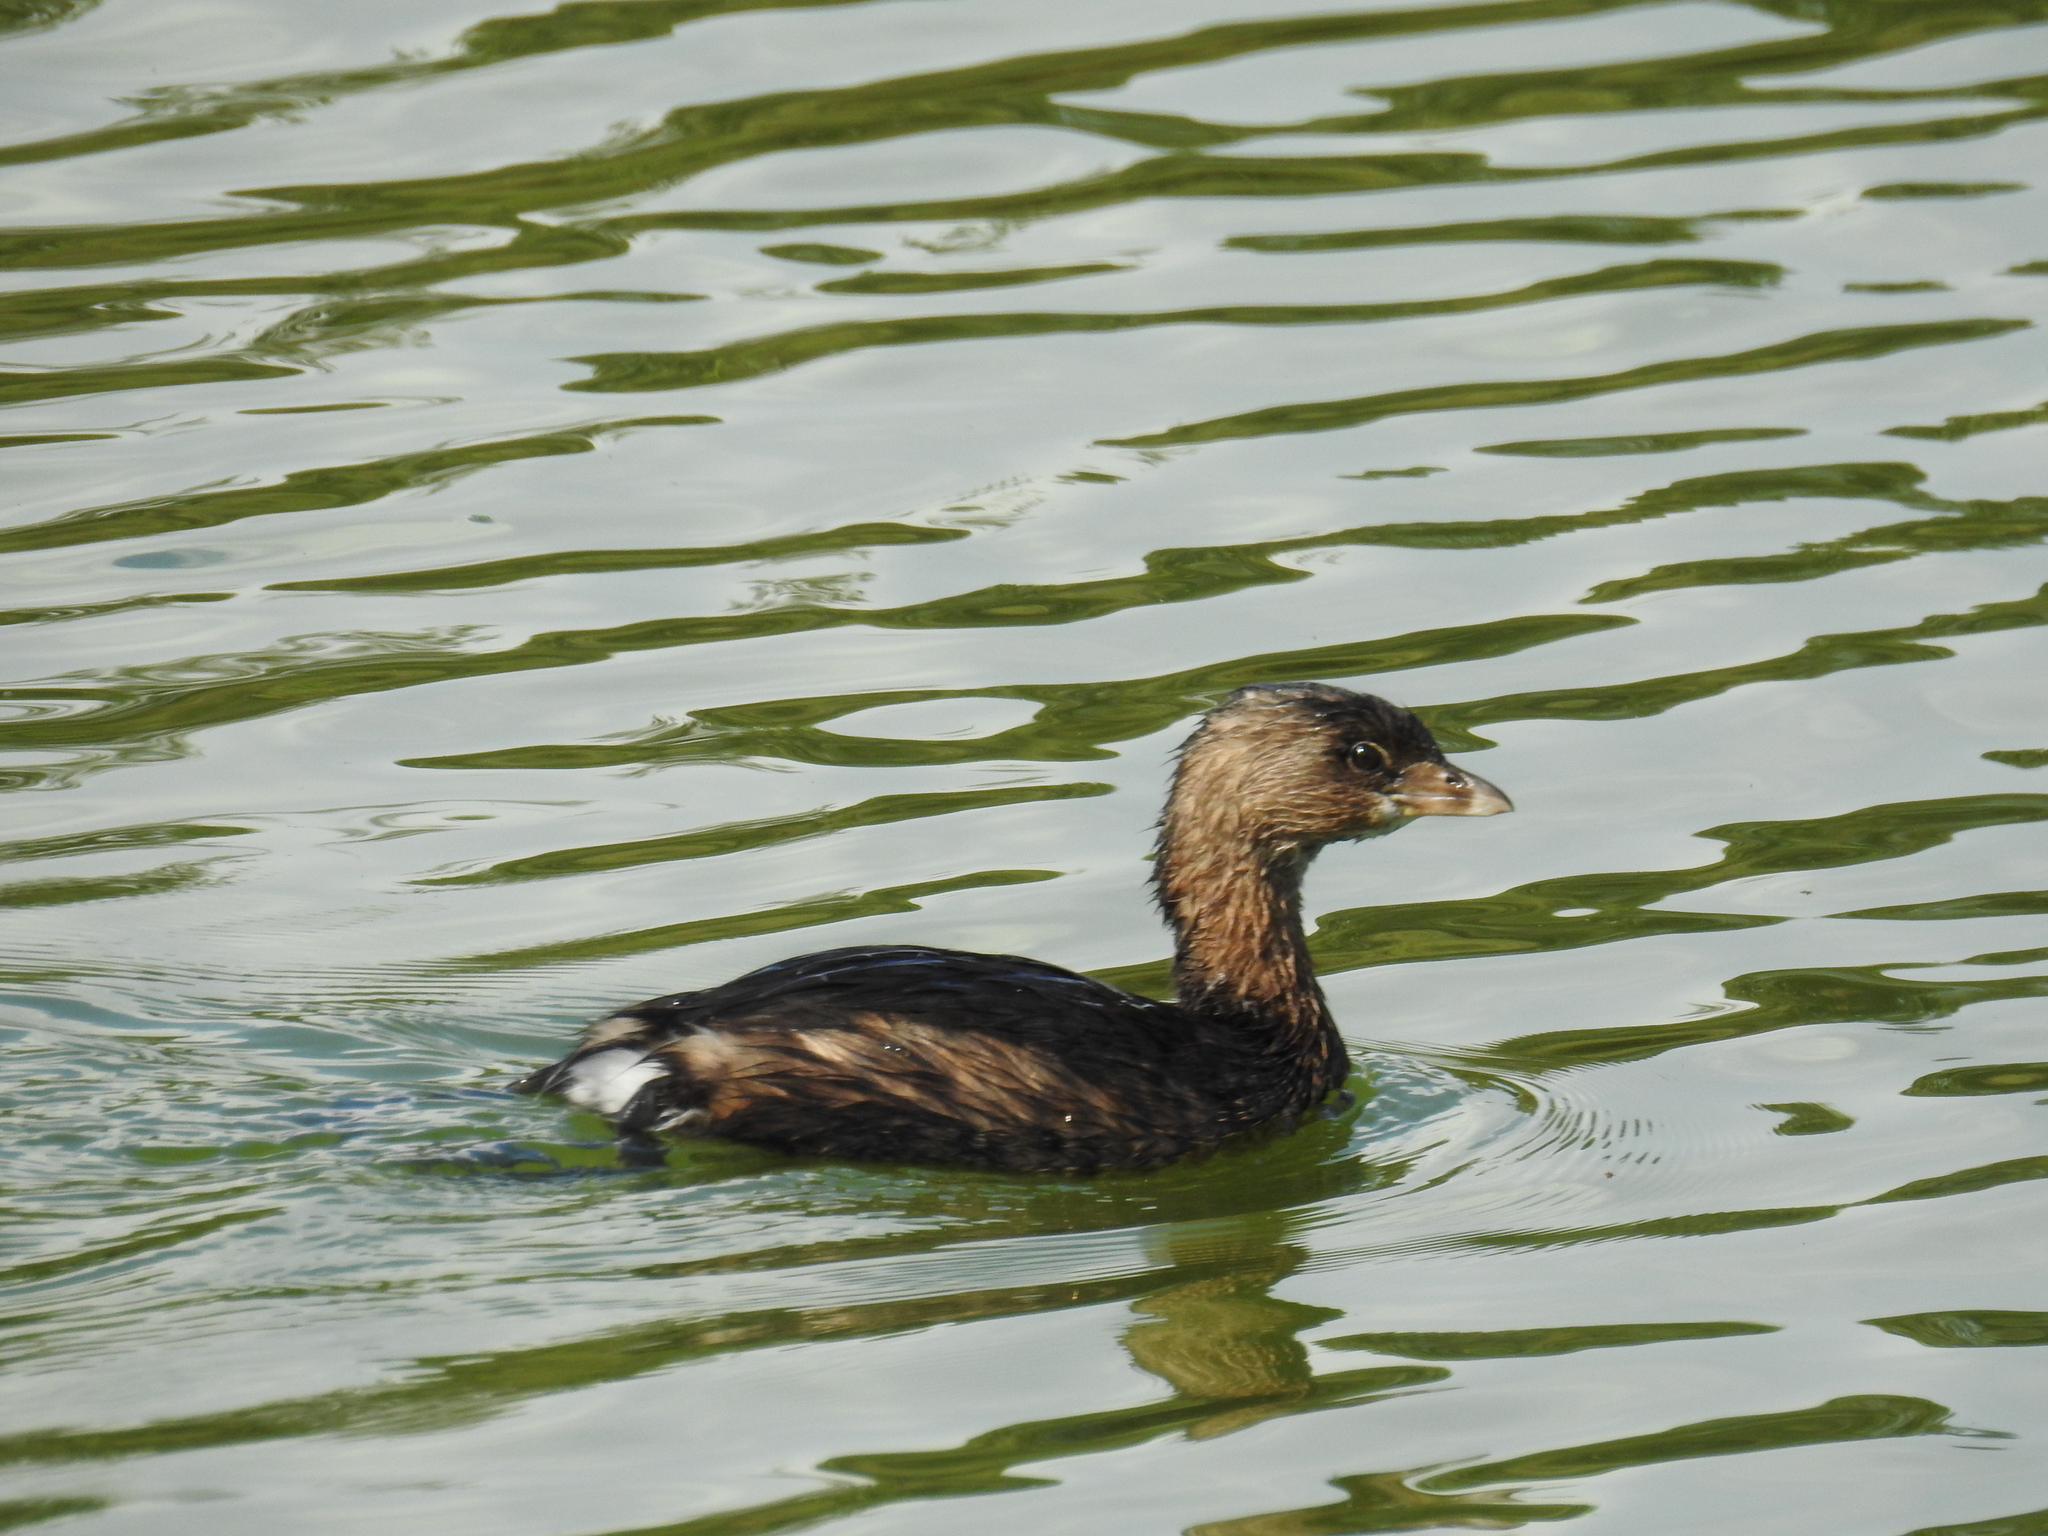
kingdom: Animalia
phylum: Chordata
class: Aves
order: Podicipediformes
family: Podicipedidae
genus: Podilymbus
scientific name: Podilymbus podiceps
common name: Pied-billed grebe
